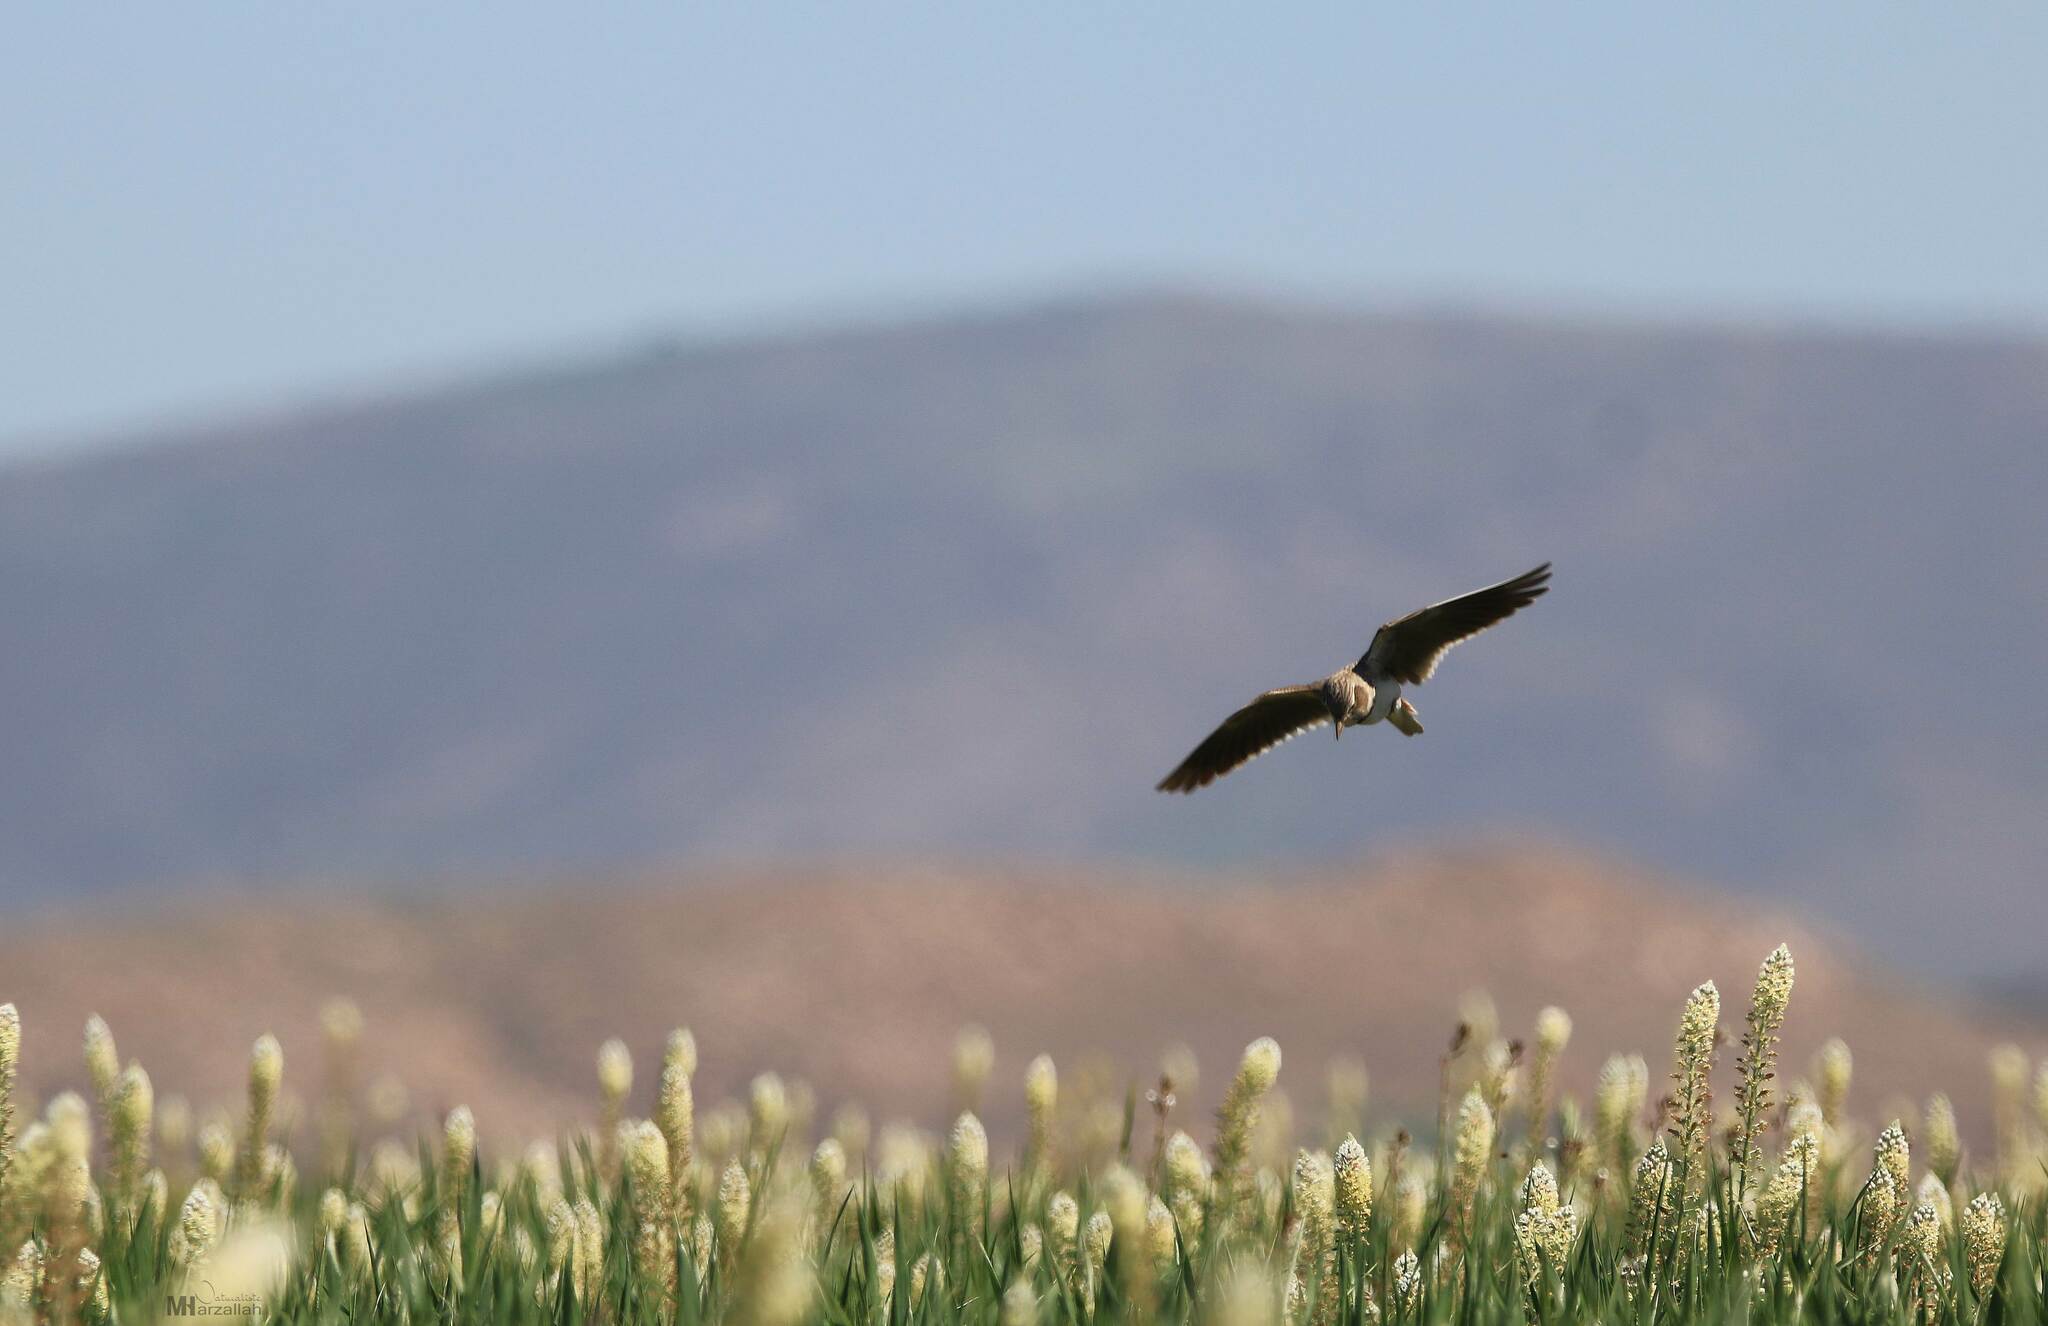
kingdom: Animalia
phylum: Chordata
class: Aves
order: Passeriformes
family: Alaudidae
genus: Melanocorypha
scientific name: Melanocorypha calandra
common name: Calandra lark
